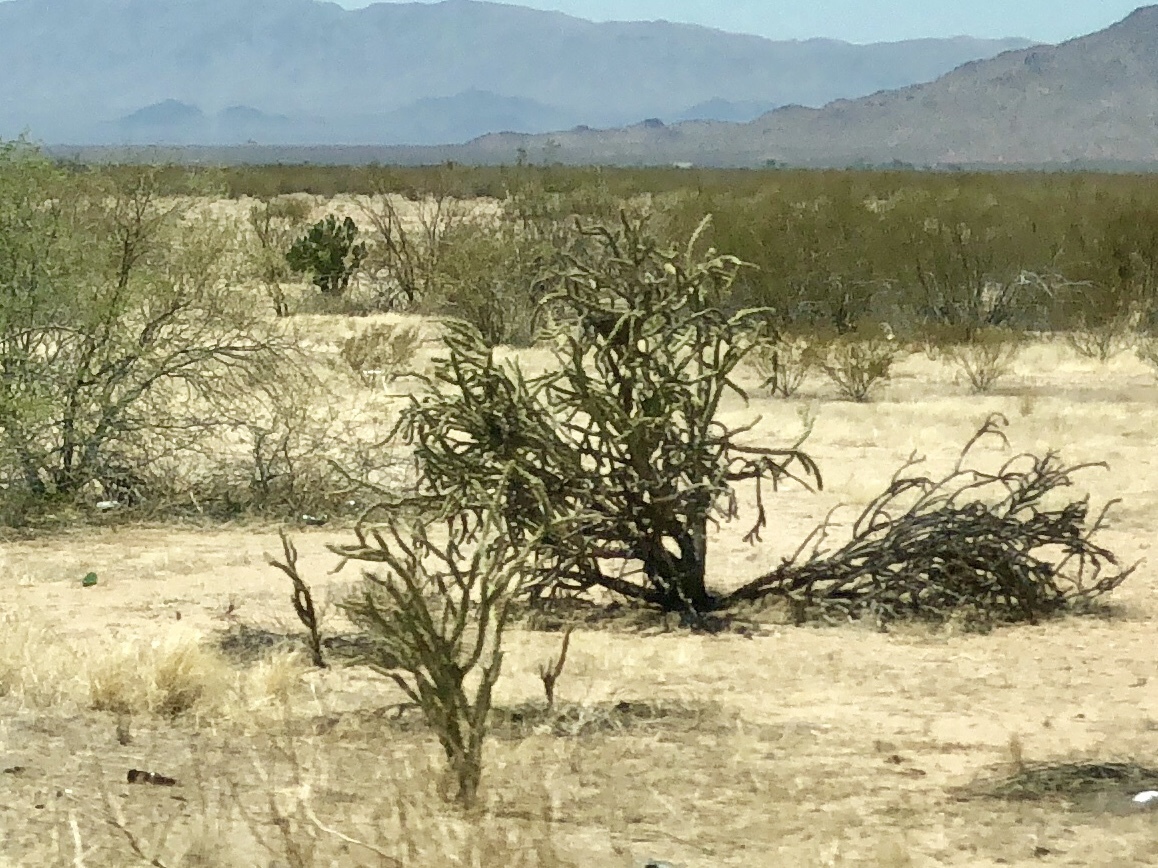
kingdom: Plantae
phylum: Tracheophyta
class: Magnoliopsida
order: Caryophyllales
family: Cactaceae
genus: Cylindropuntia
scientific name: Cylindropuntia acanthocarpa
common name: Buckhorn cholla
